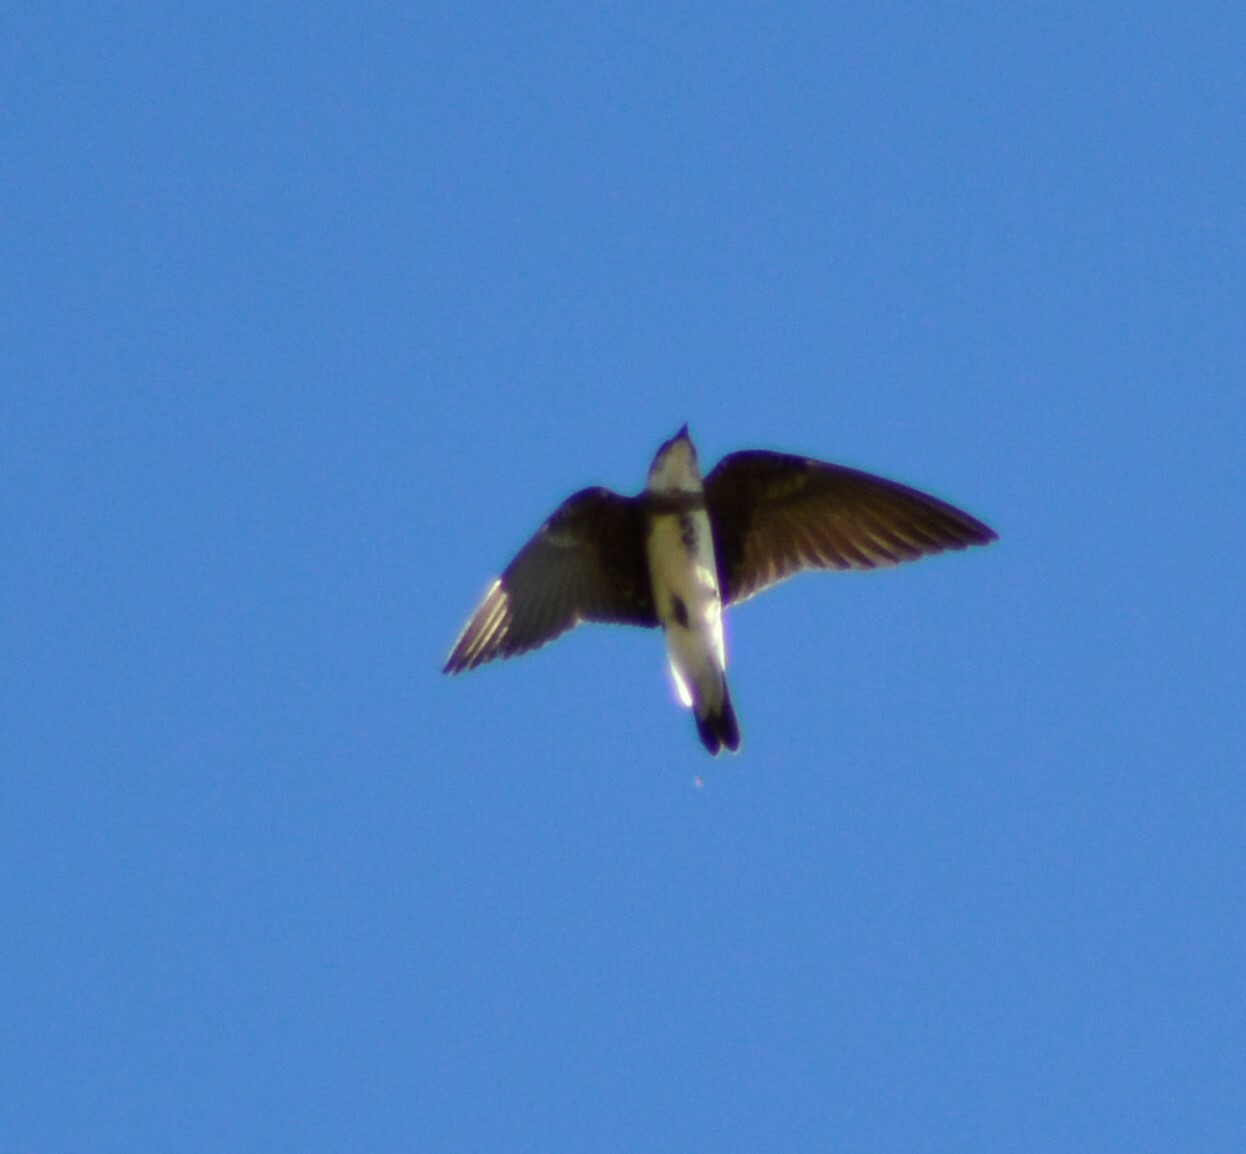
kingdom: Animalia
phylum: Chordata
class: Aves
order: Passeriformes
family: Hirundinidae
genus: Progne
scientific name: Progne tapera
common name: Brown-chested martin
